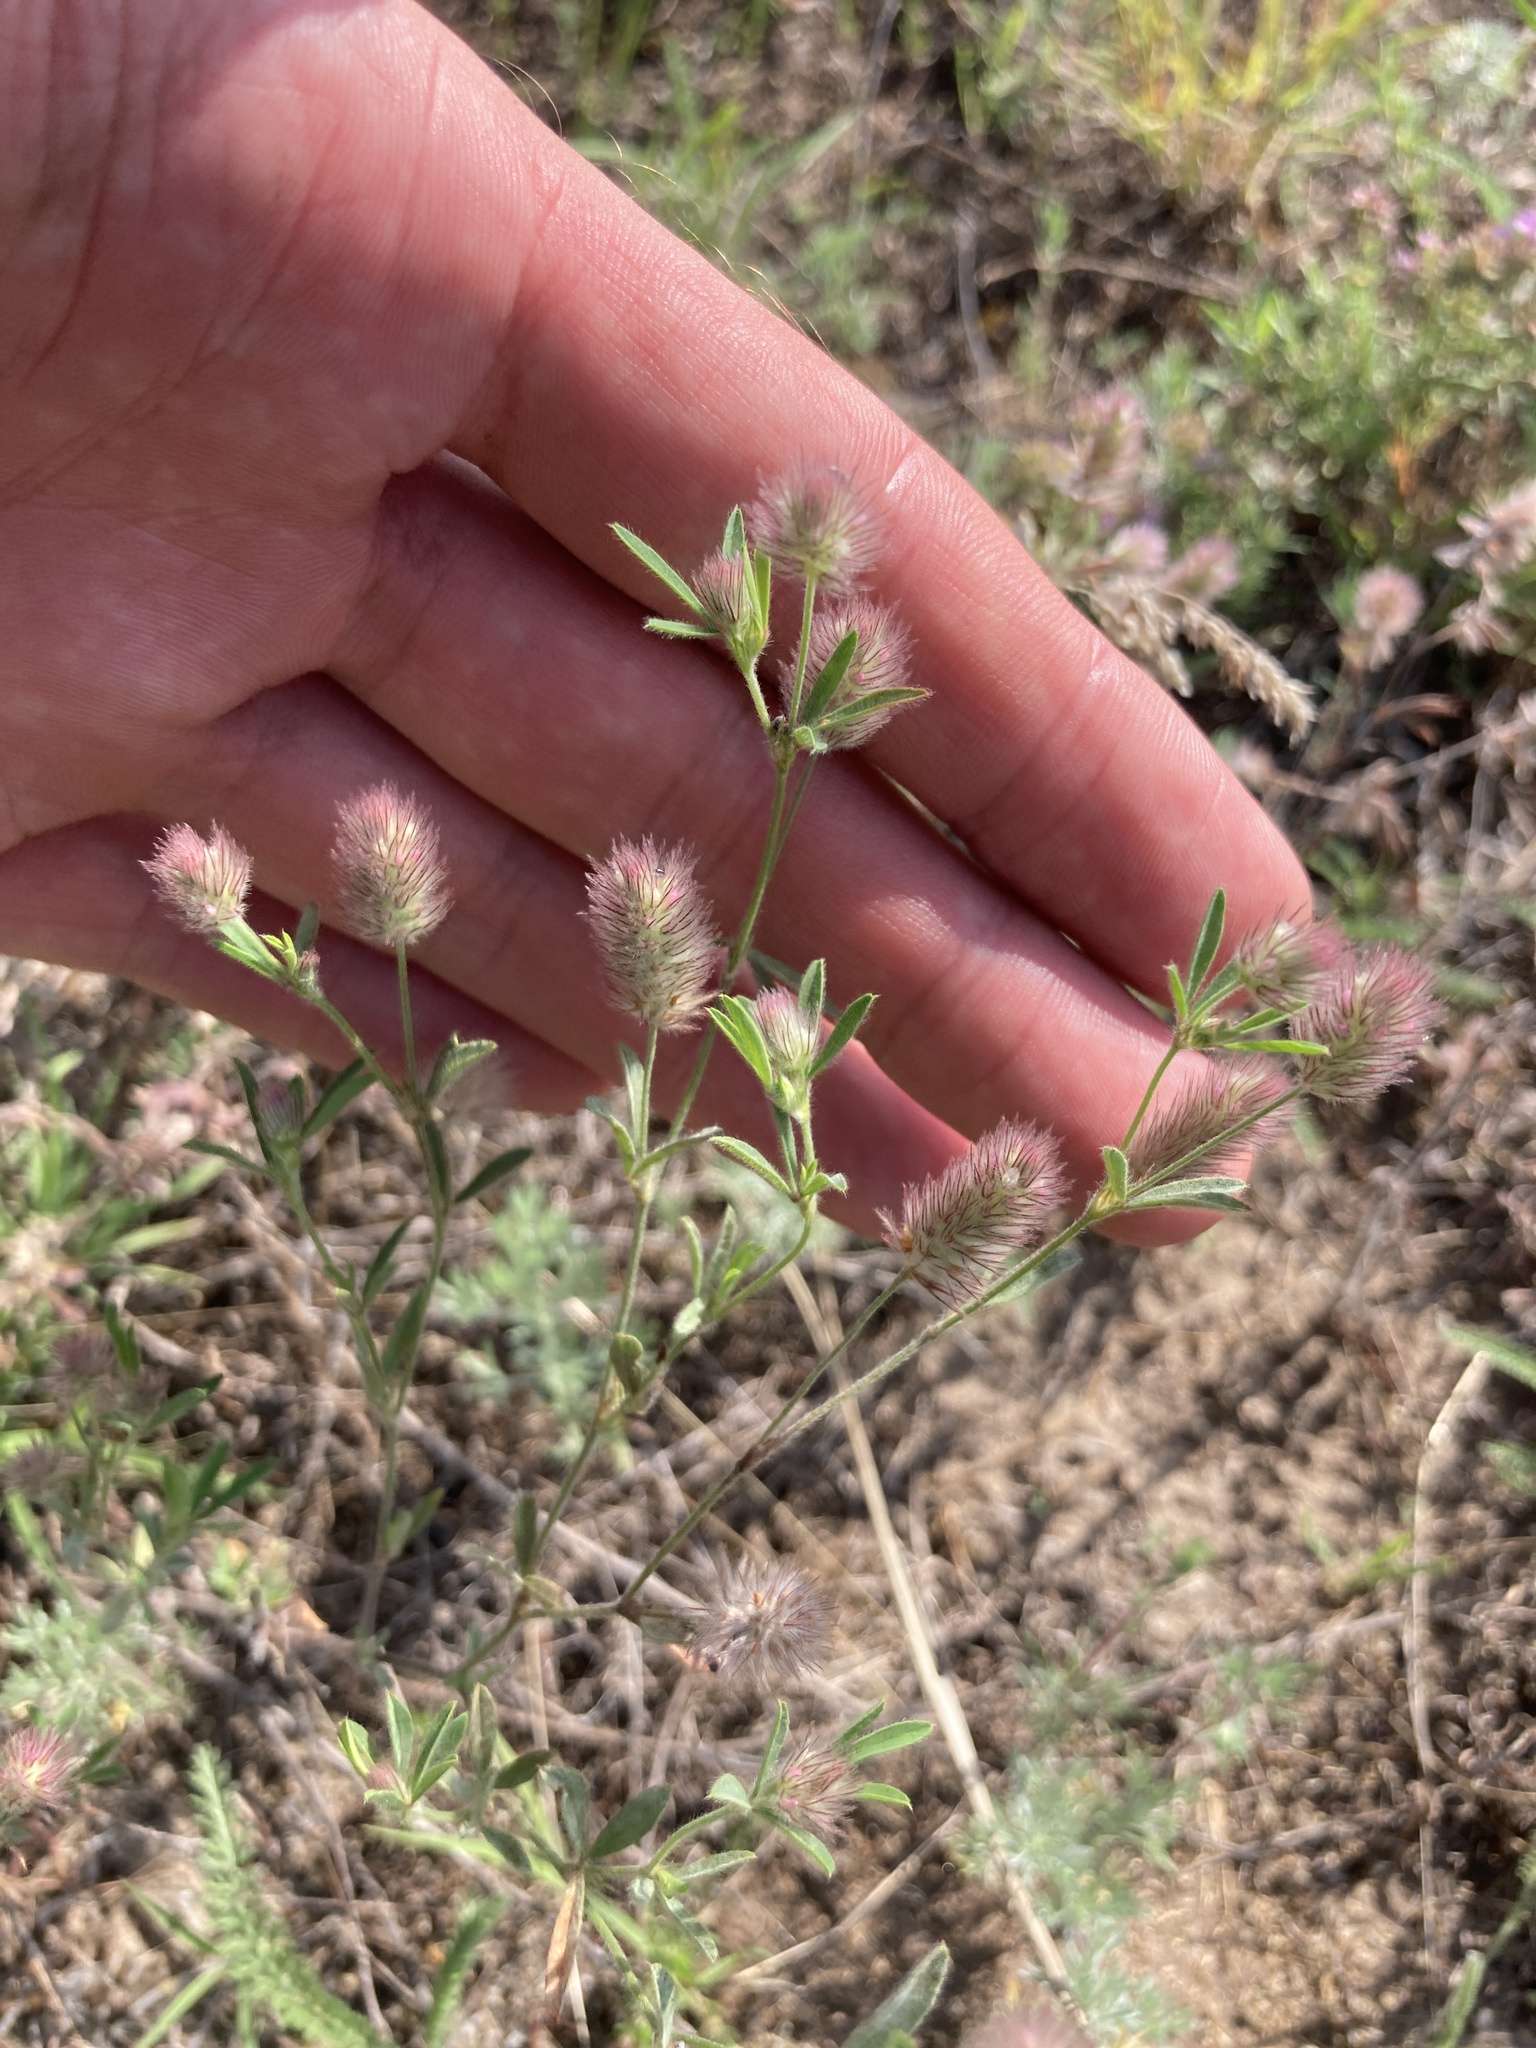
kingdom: Plantae
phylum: Tracheophyta
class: Magnoliopsida
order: Fabales
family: Fabaceae
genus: Trifolium
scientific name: Trifolium arvense
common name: Hare's-foot clover
